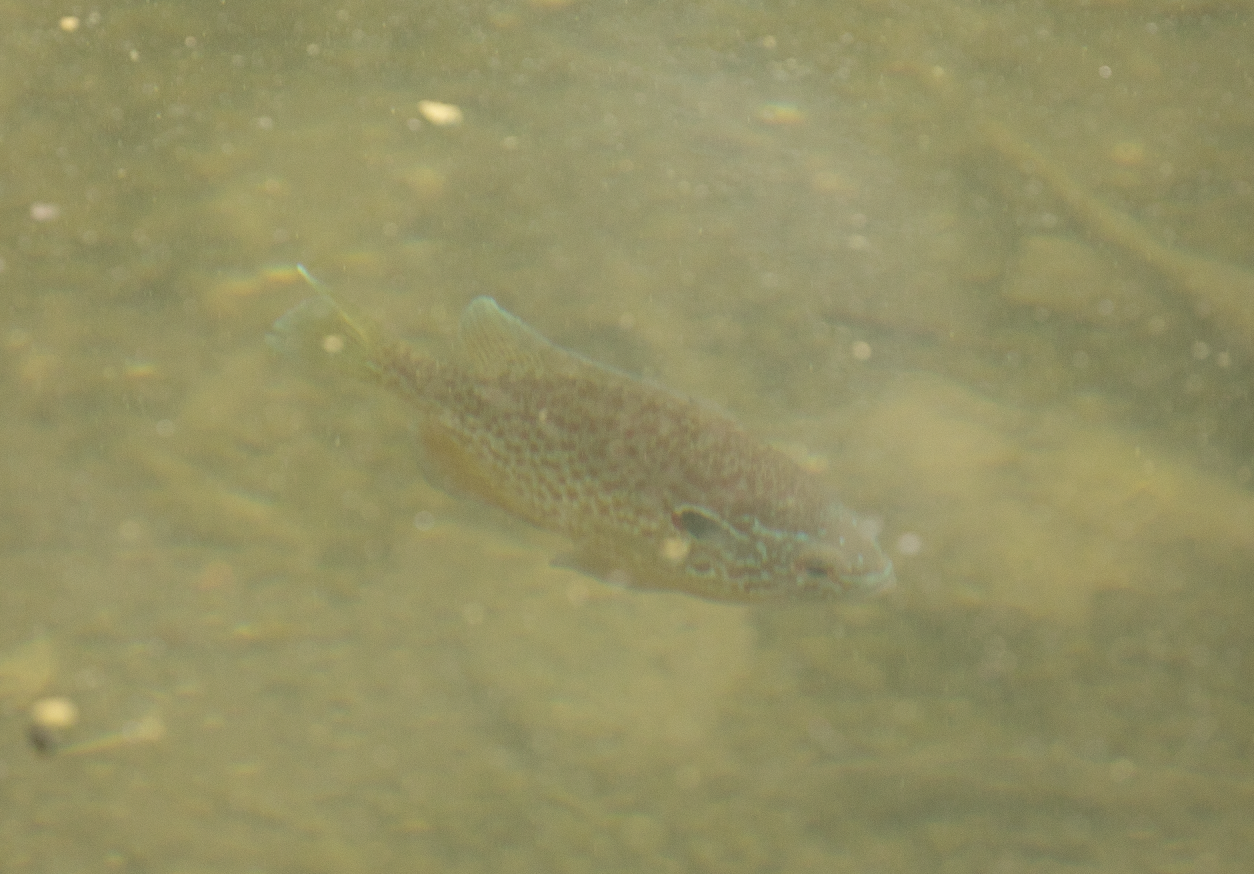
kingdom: Animalia
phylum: Chordata
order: Perciformes
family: Centrarchidae
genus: Lepomis
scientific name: Lepomis gibbosus
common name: Pumpkinseed
